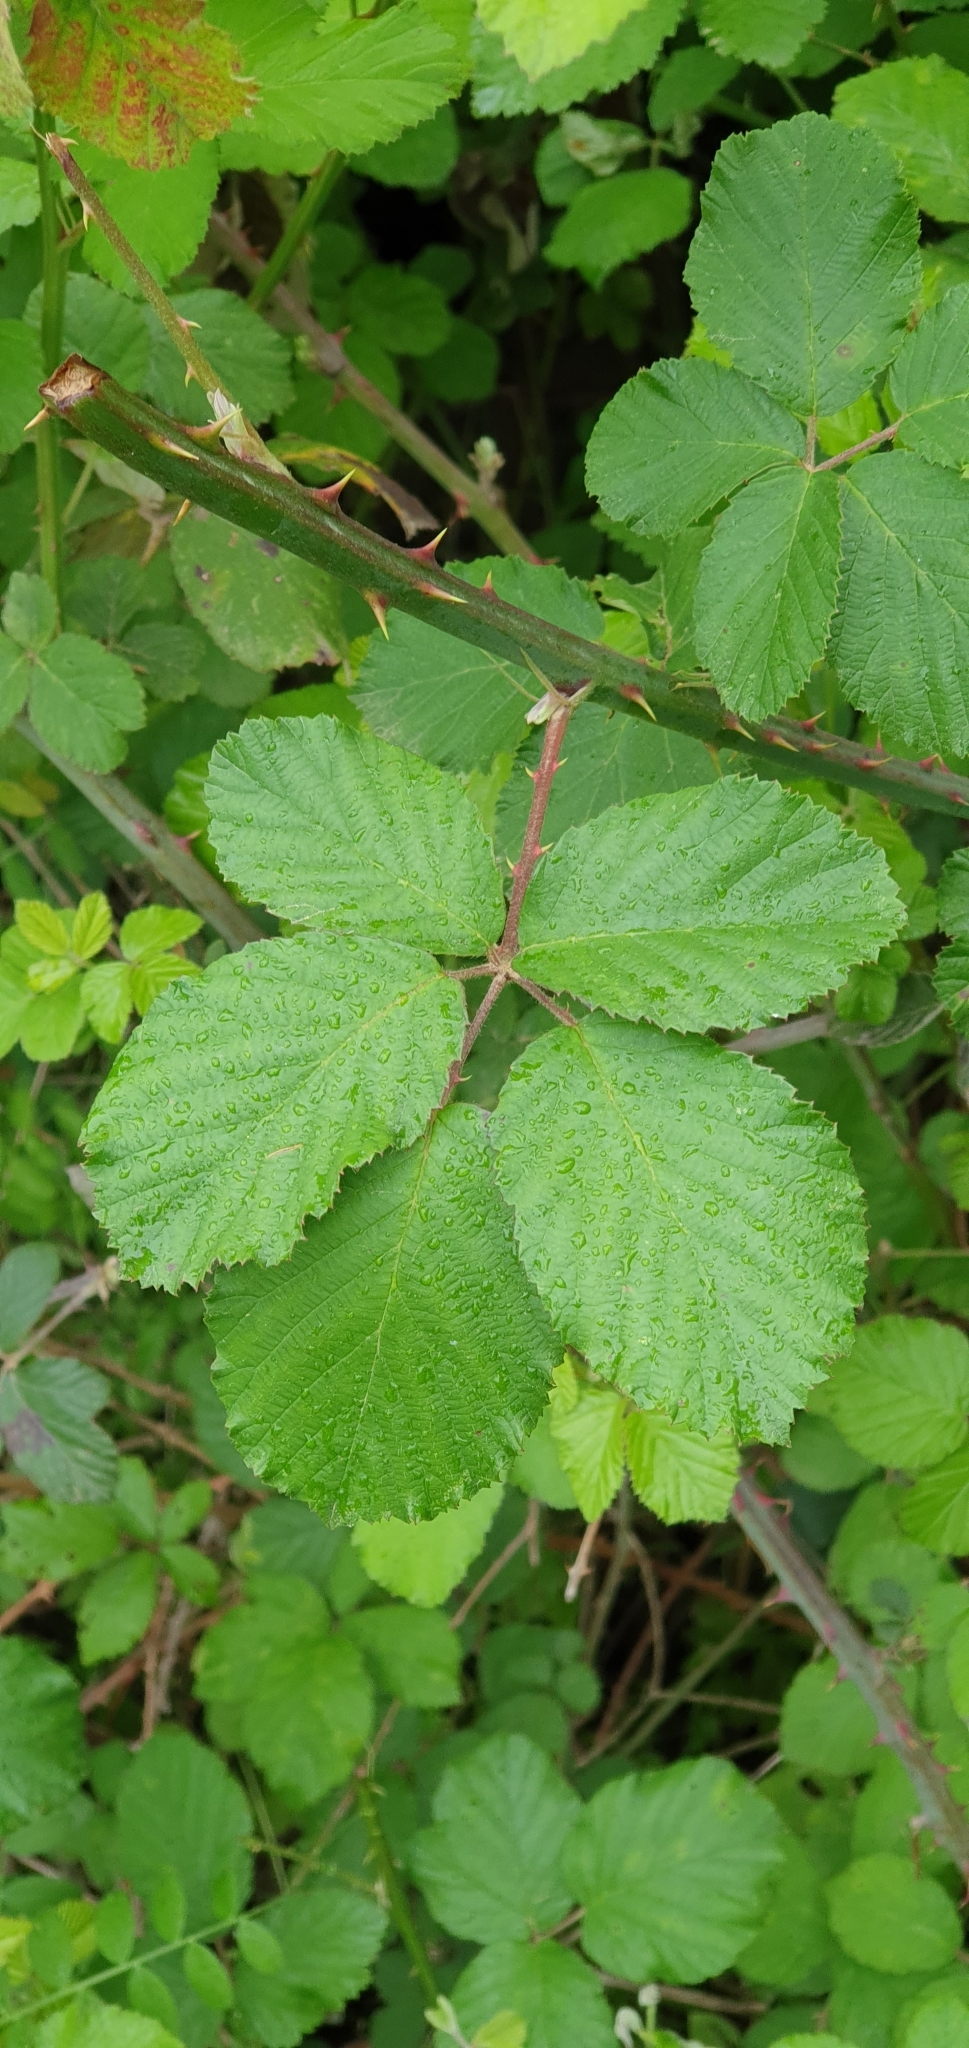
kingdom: Plantae
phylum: Tracheophyta
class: Magnoliopsida
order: Rosales
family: Rosaceae
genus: Rubus
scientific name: Rubus ulmifolius
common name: Elmleaf blackberry
